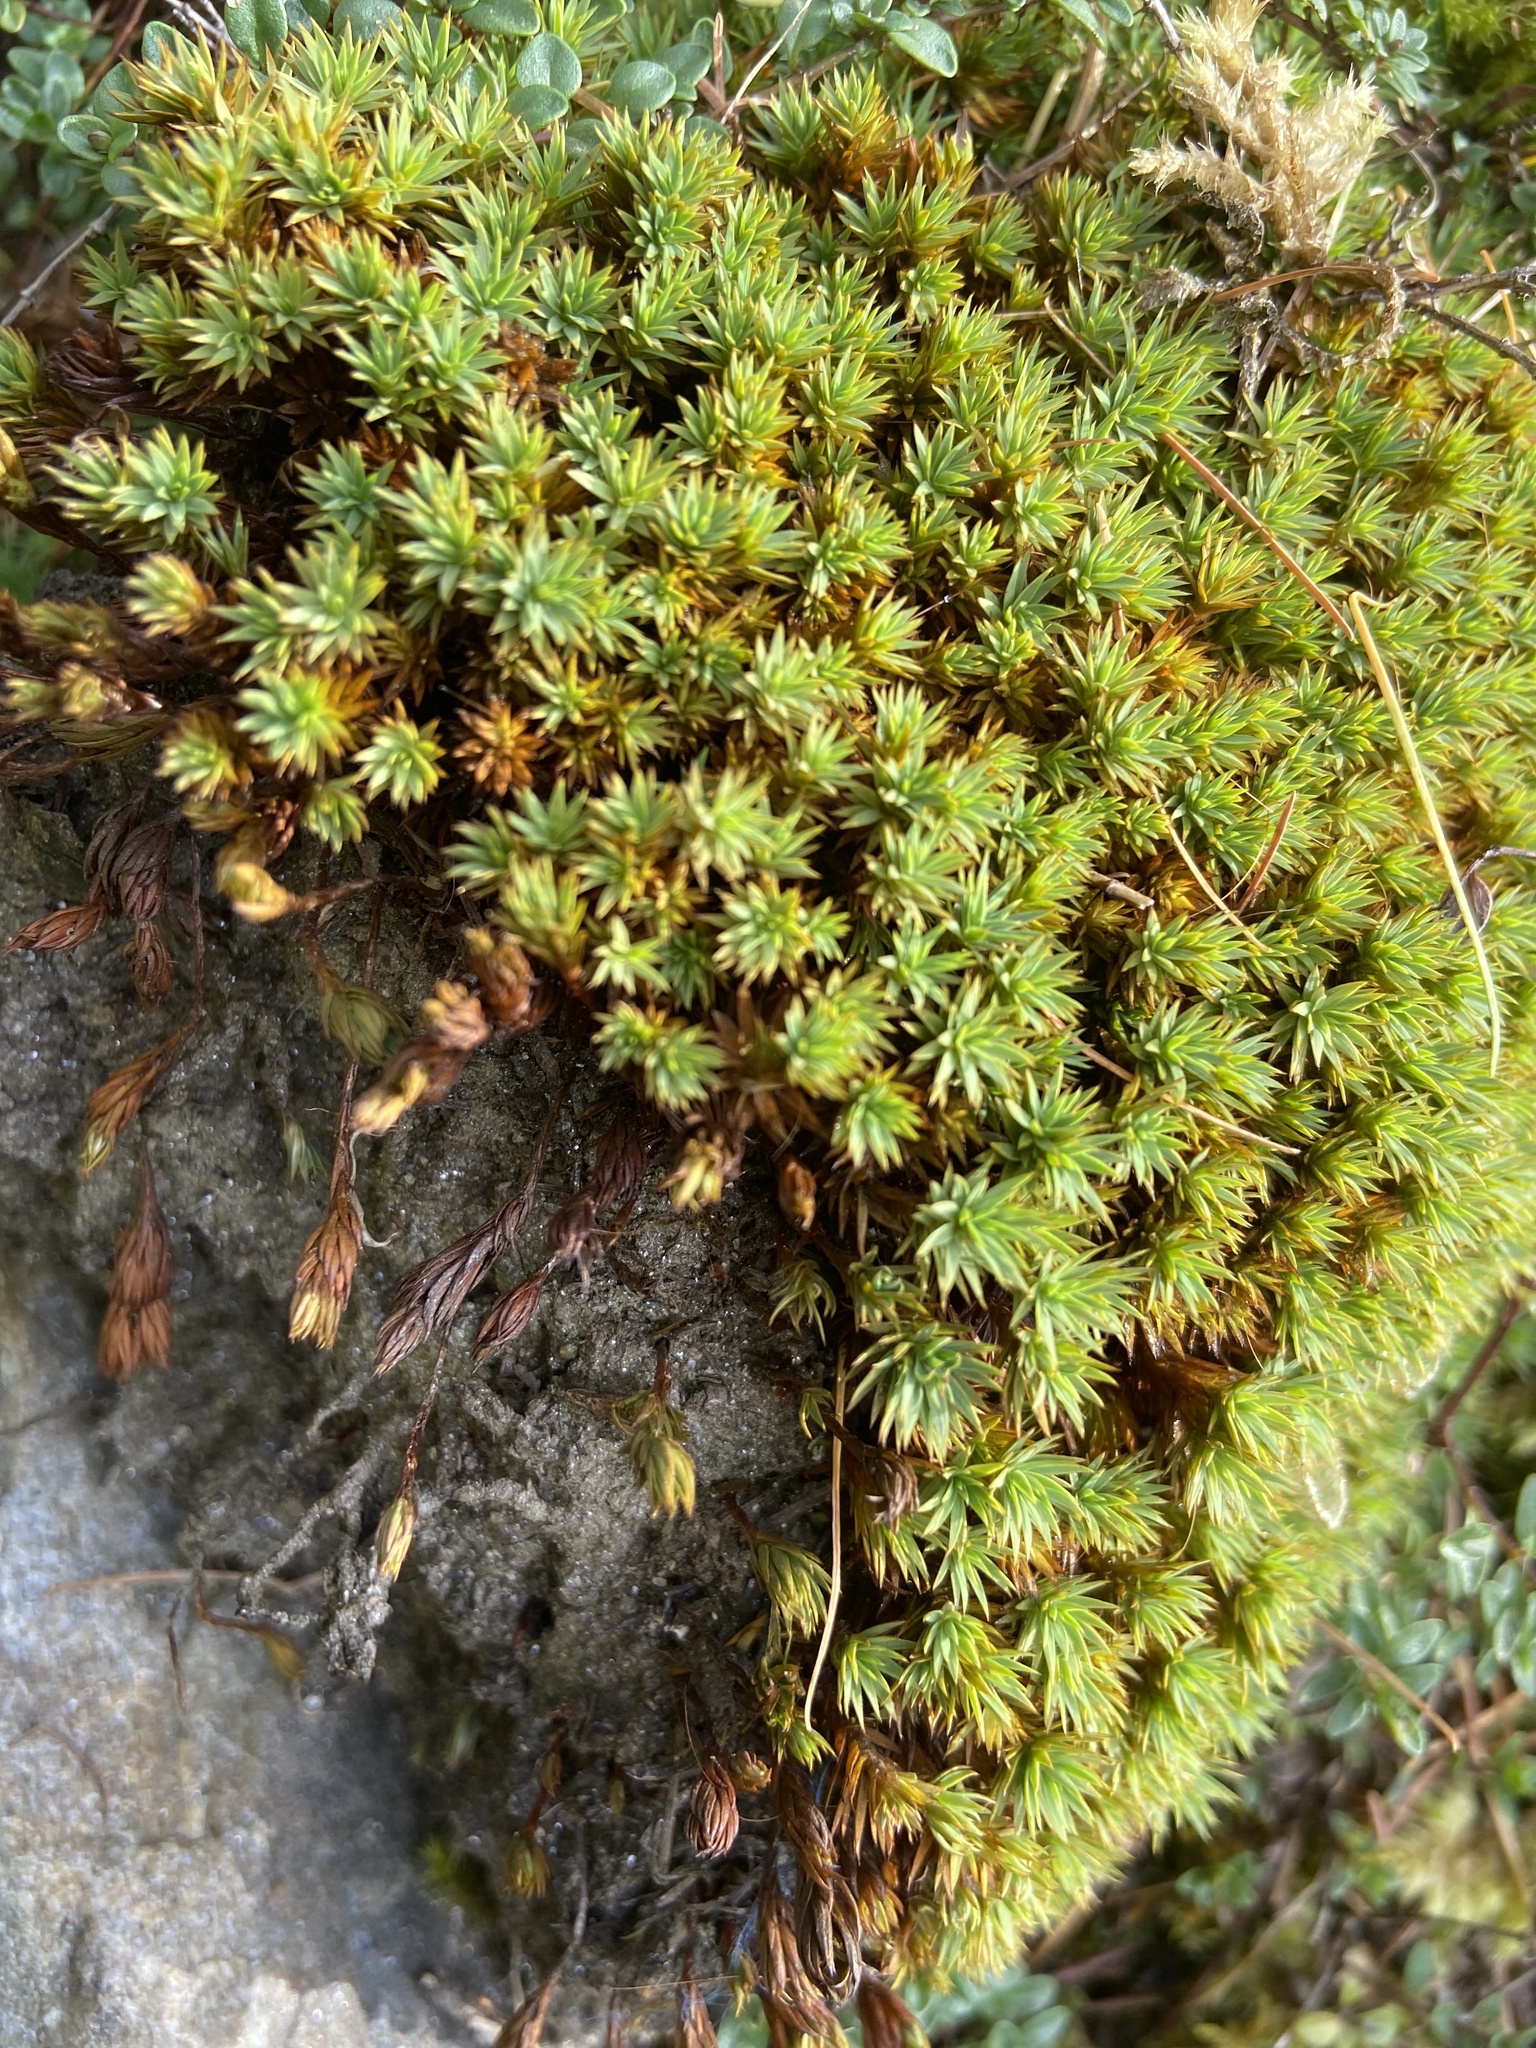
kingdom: Plantae
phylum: Bryophyta
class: Polytrichopsida
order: Polytrichales
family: Polytrichaceae
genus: Pogonatum
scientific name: Pogonatum urnigerum
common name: Urn hair moss
